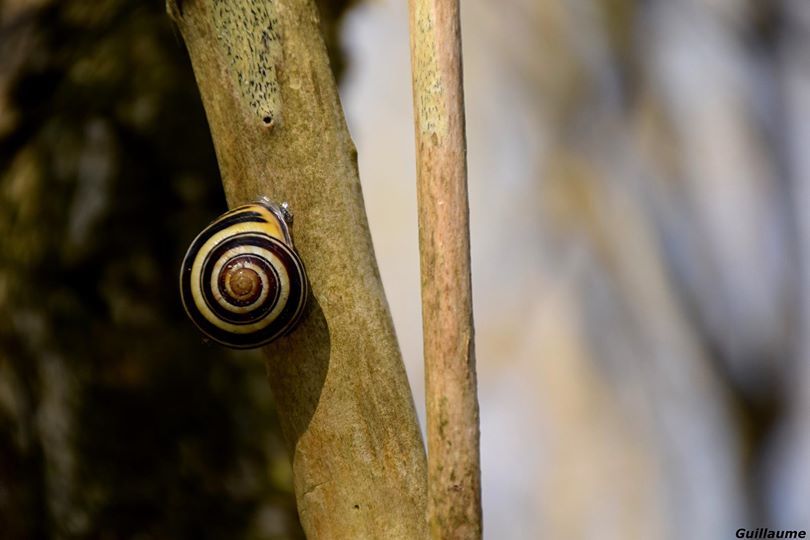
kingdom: Animalia
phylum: Mollusca
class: Gastropoda
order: Stylommatophora
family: Helicidae
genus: Cepaea
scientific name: Cepaea nemoralis
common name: Grovesnail
